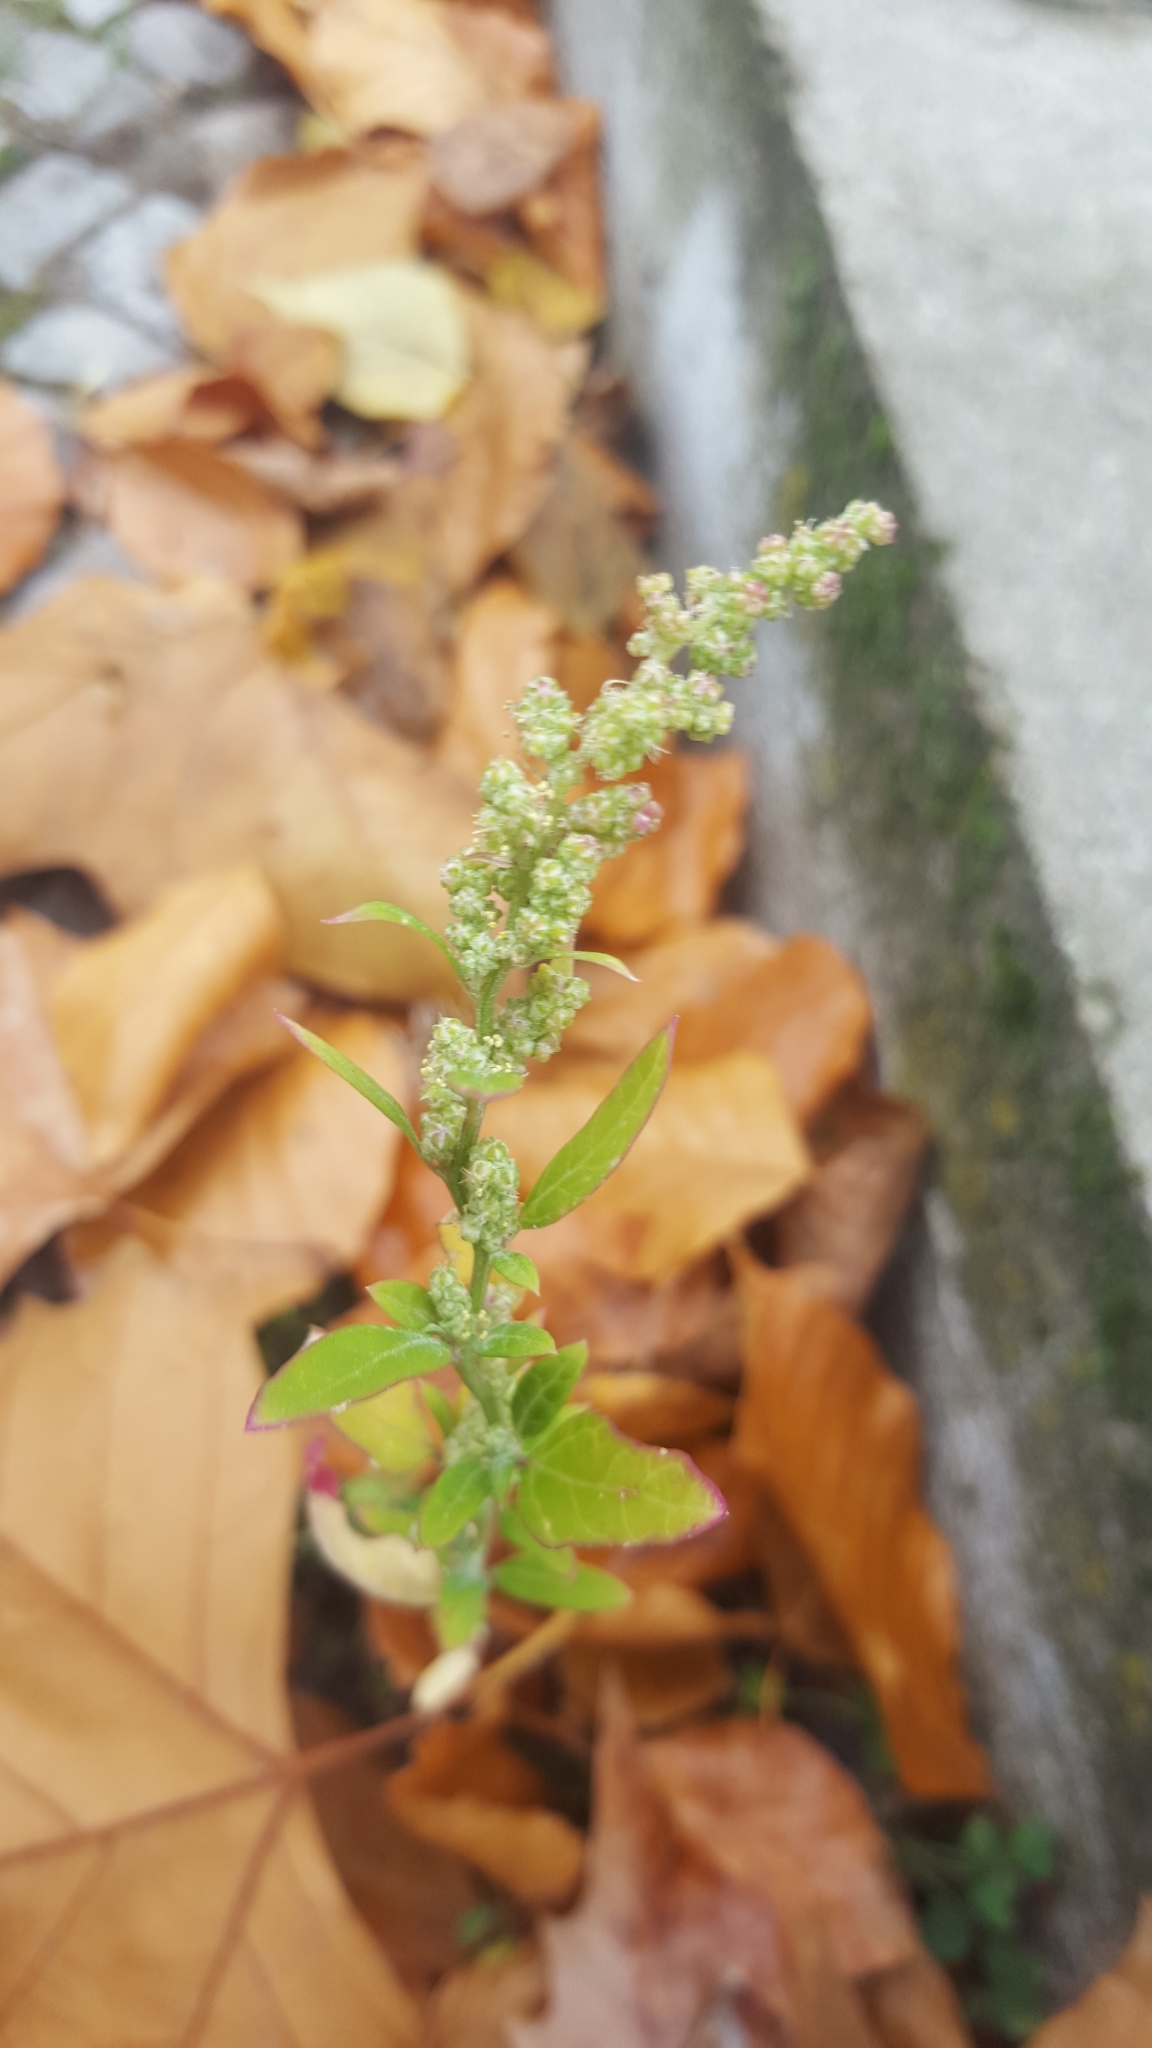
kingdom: Plantae
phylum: Tracheophyta
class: Magnoliopsida
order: Caryophyllales
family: Amaranthaceae
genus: Chenopodium
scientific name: Chenopodium album
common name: Fat-hen
